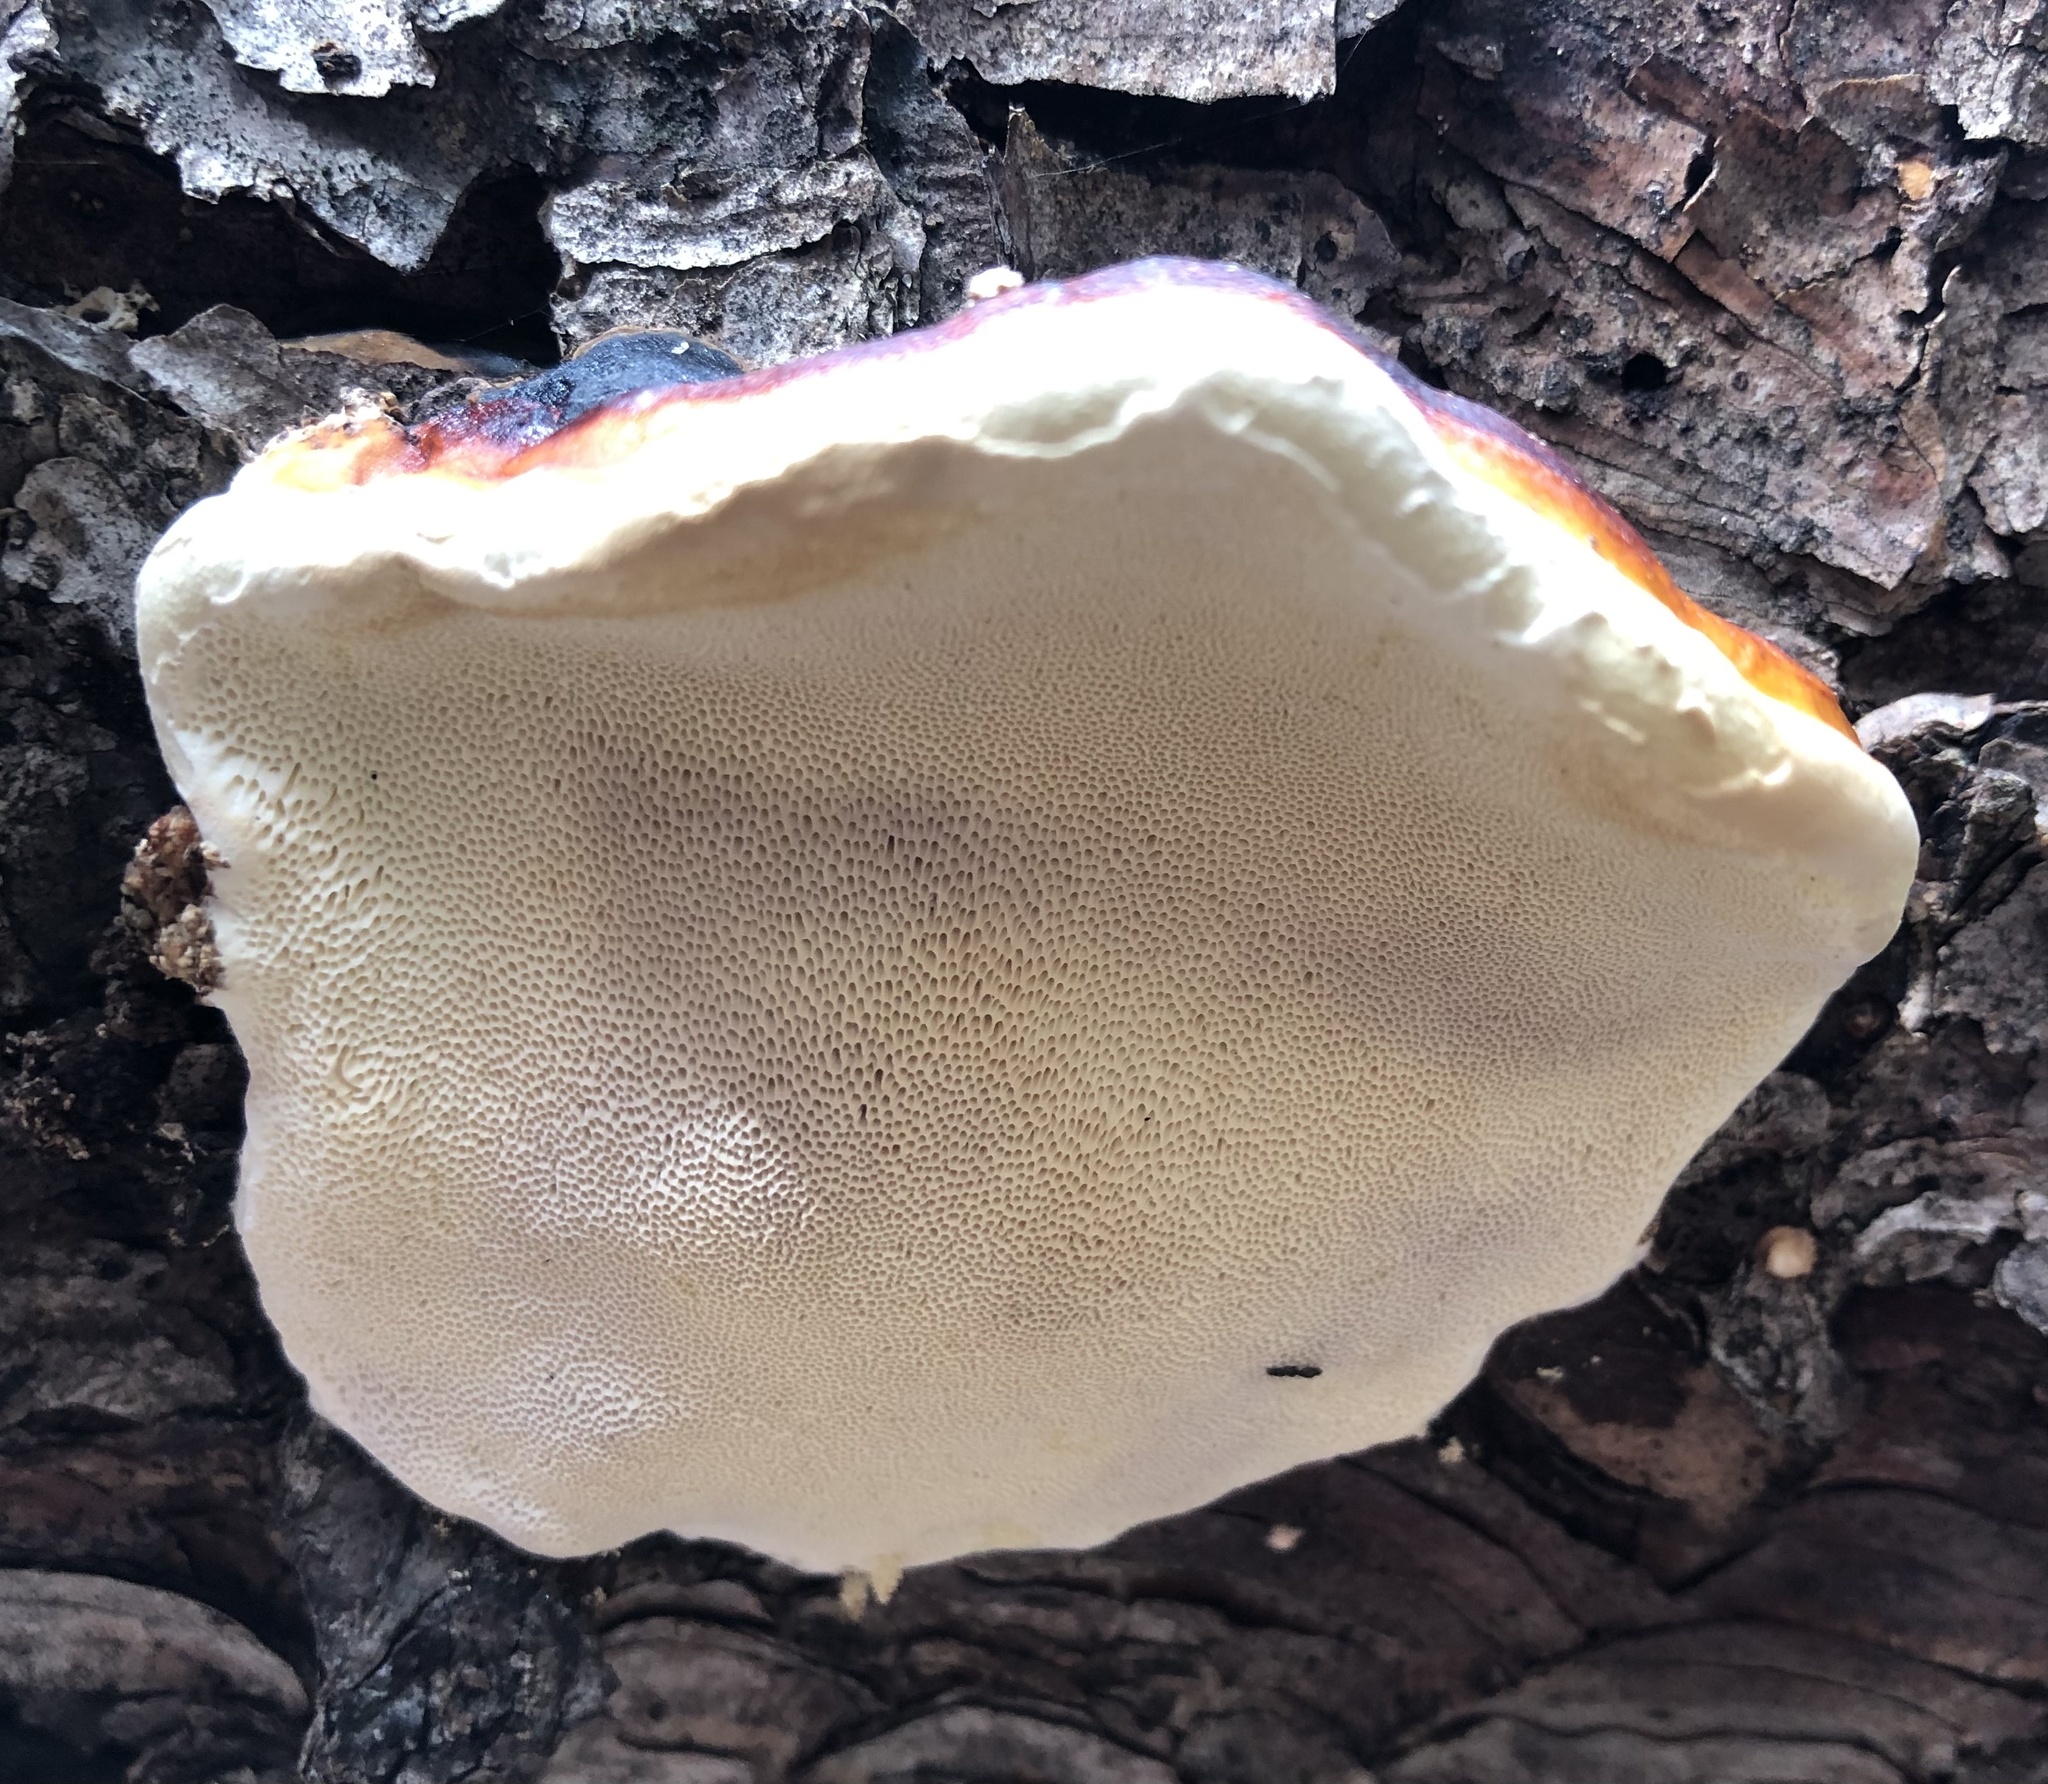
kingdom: Fungi
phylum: Basidiomycota
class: Agaricomycetes
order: Polyporales
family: Fomitopsidaceae
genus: Fomitopsis
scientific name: Fomitopsis pinicola
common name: Red-belted bracket
